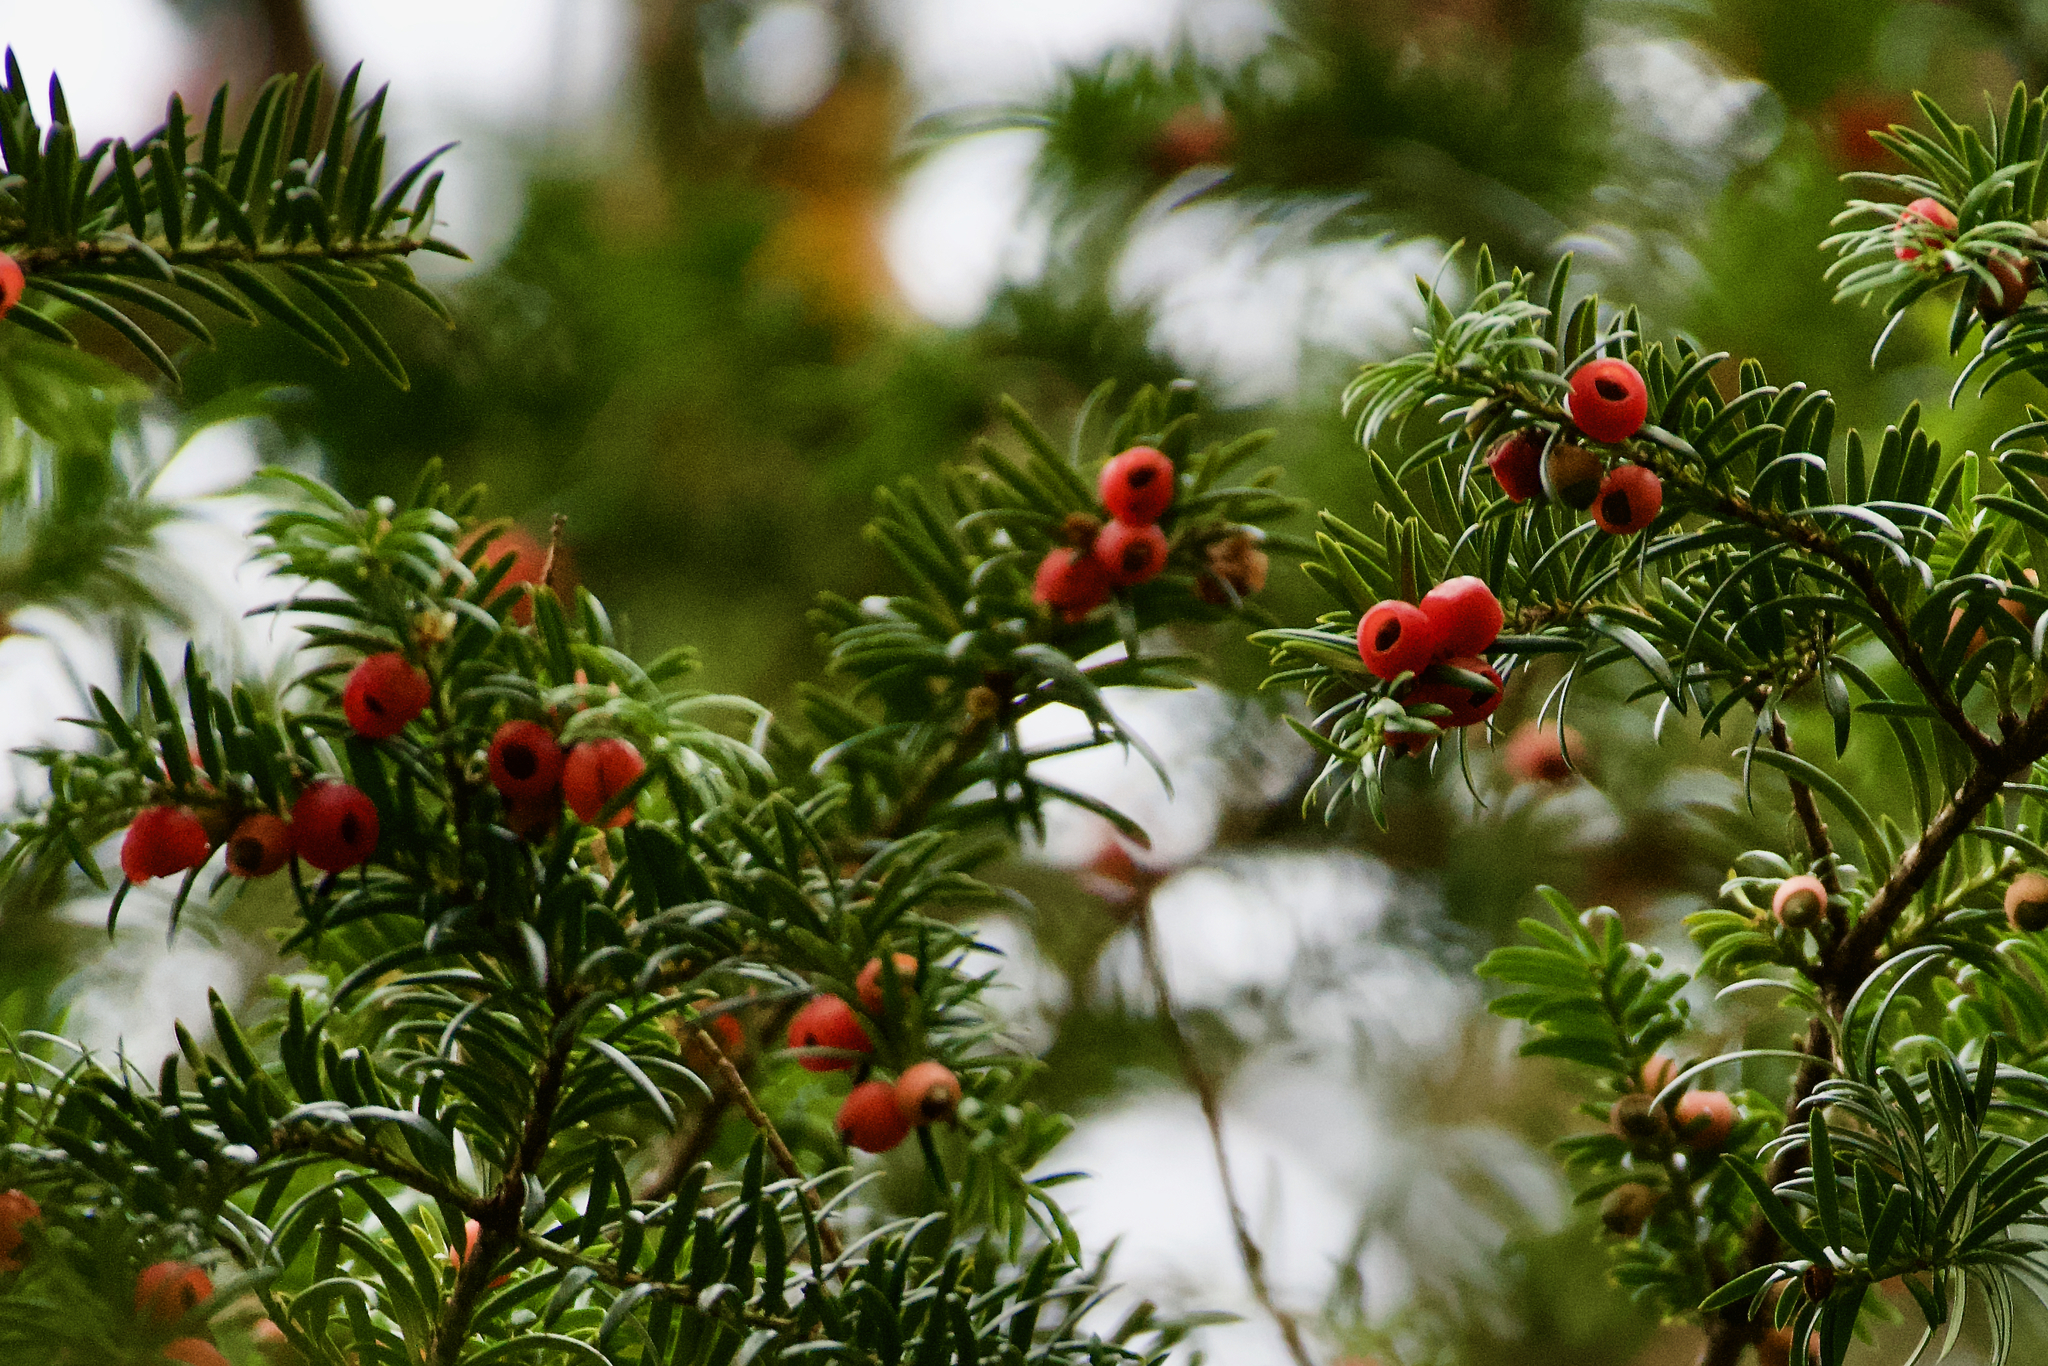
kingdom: Plantae
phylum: Tracheophyta
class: Pinopsida
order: Pinales
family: Taxaceae
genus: Taxus
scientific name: Taxus baccata
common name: Yew
